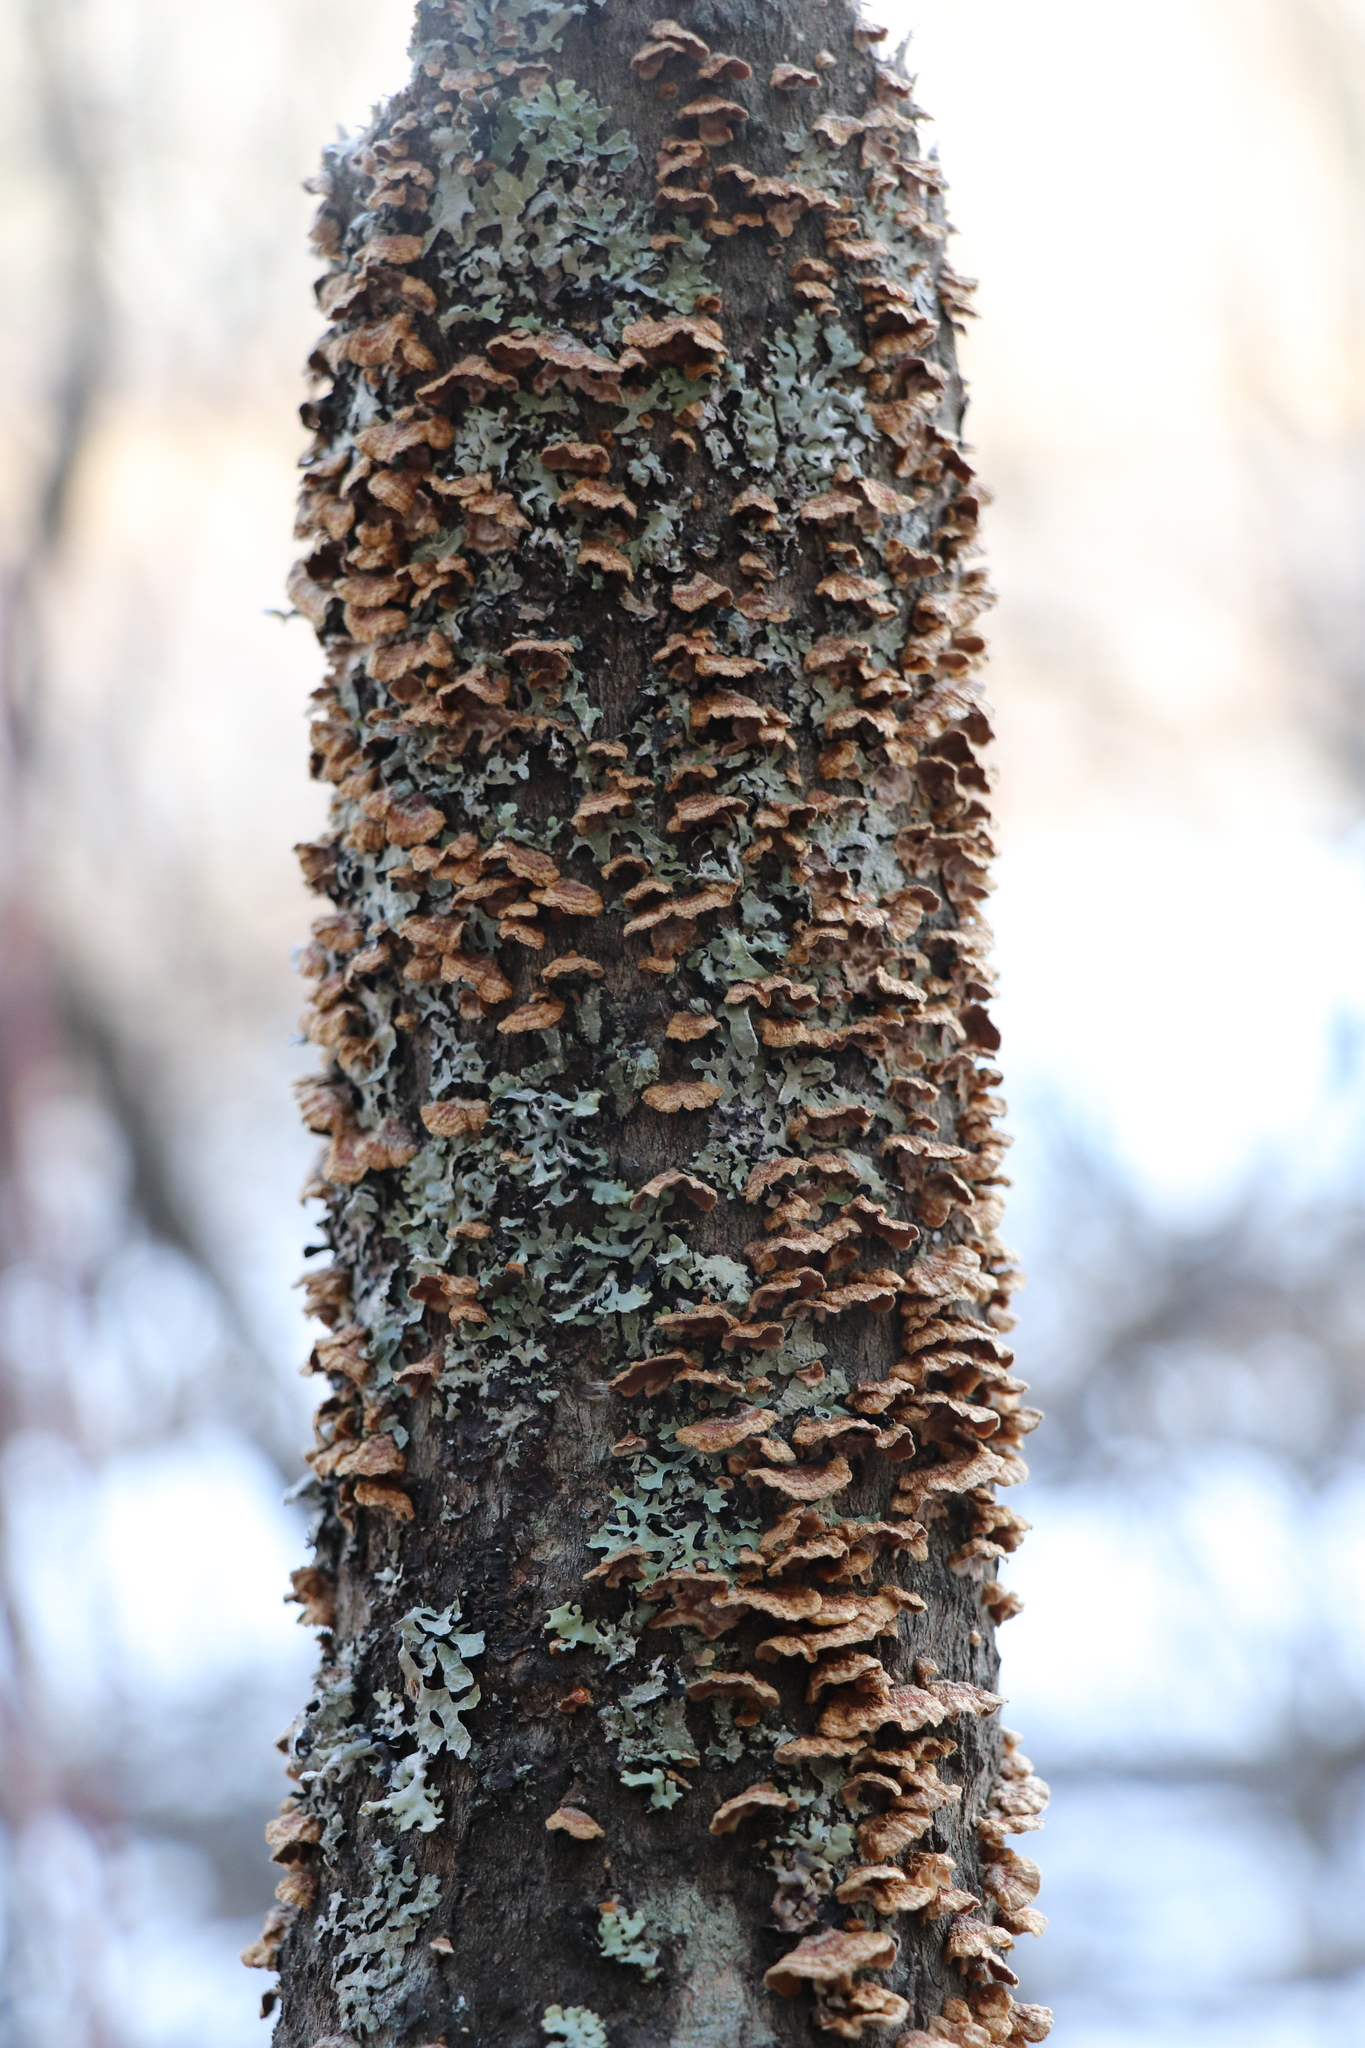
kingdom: Fungi
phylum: Basidiomycota
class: Agaricomycetes
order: Hymenochaetales
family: Hymenochaetaceae
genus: Hydnoporia
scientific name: Hydnoporia tabacina
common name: Willow glue
